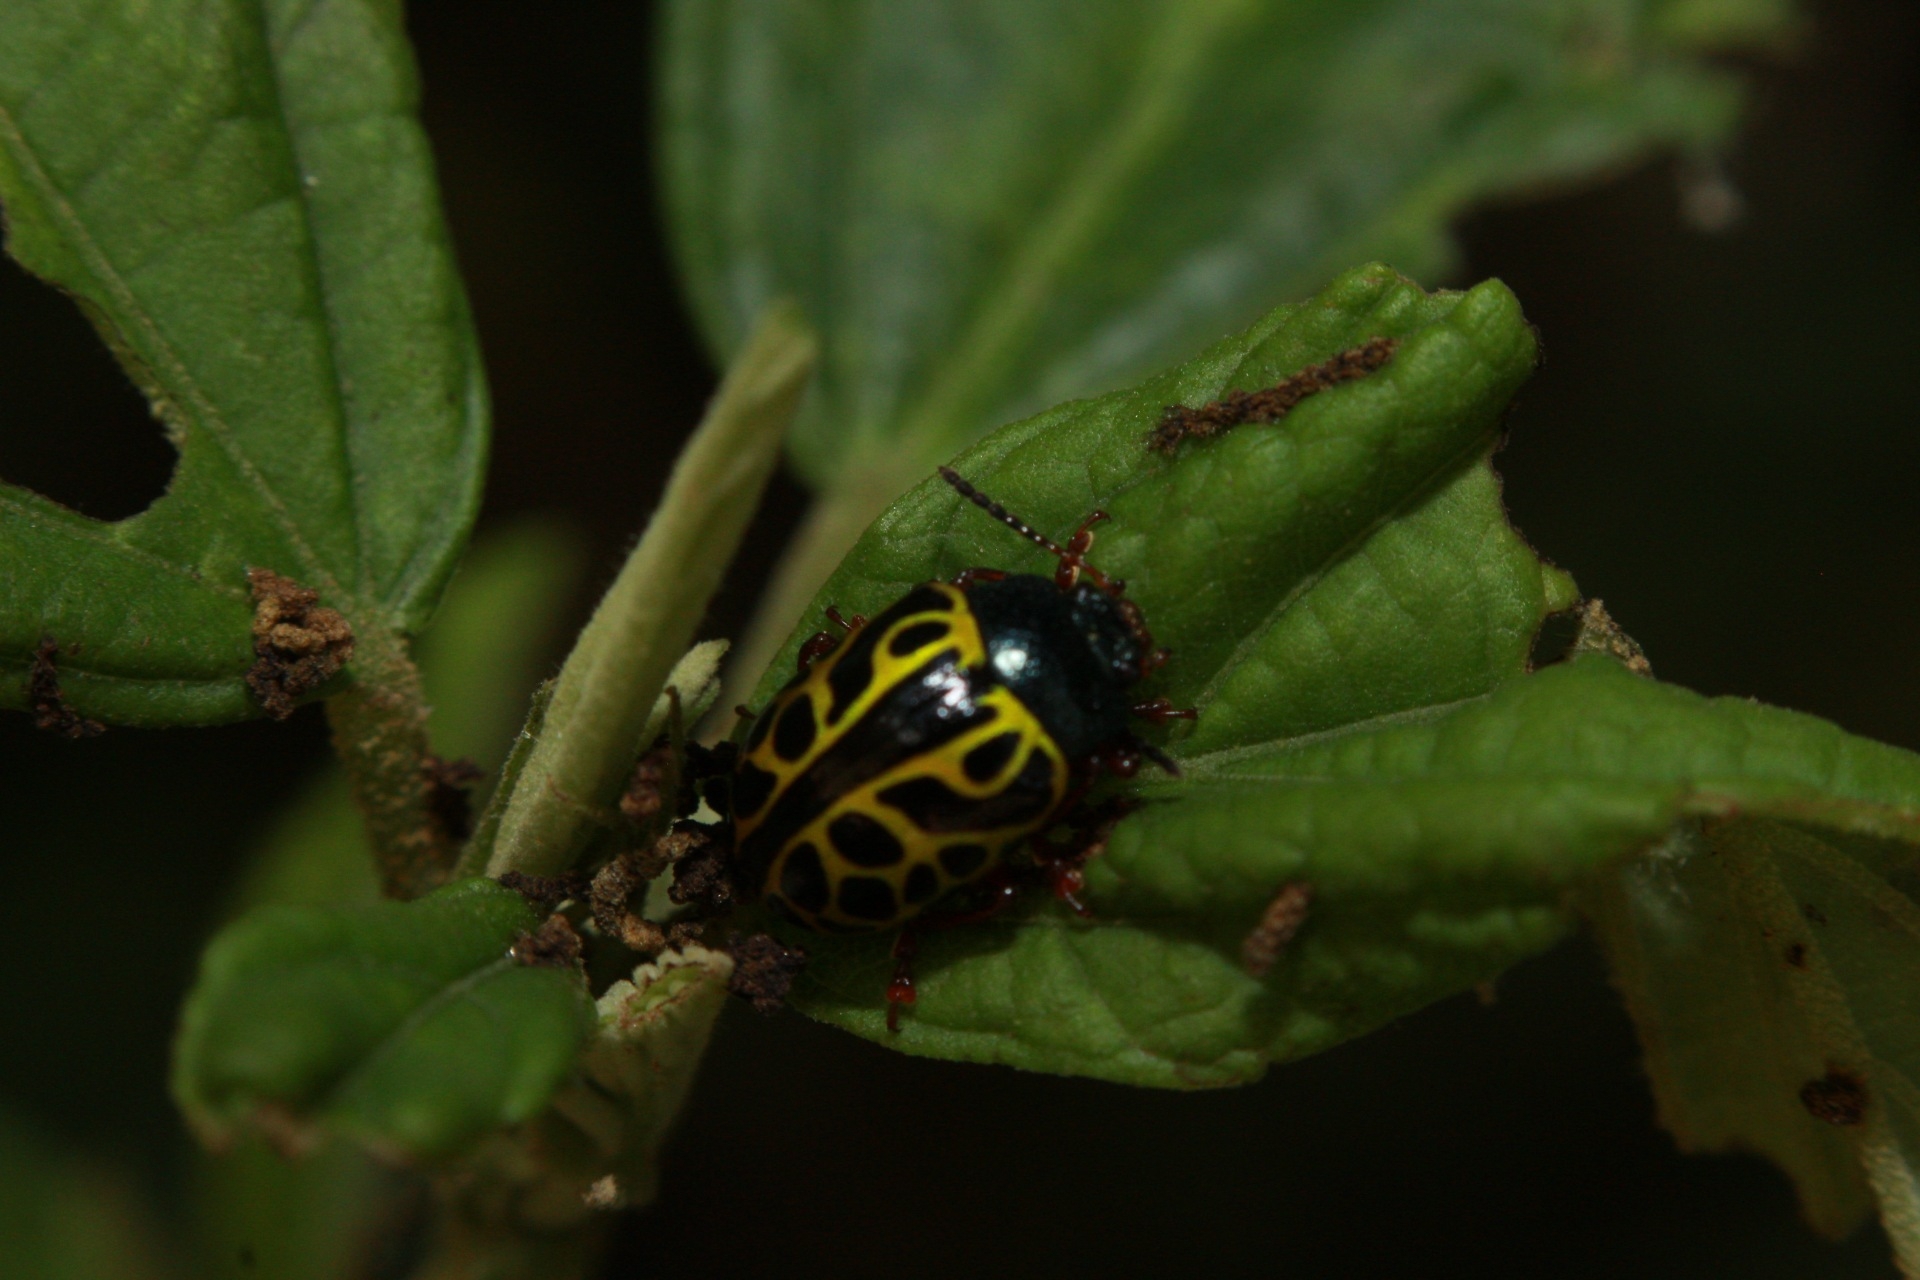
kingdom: Animalia
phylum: Arthropoda
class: Insecta
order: Coleoptera
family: Chrysomelidae
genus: Calligrapha
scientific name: Calligrapha matronalis
